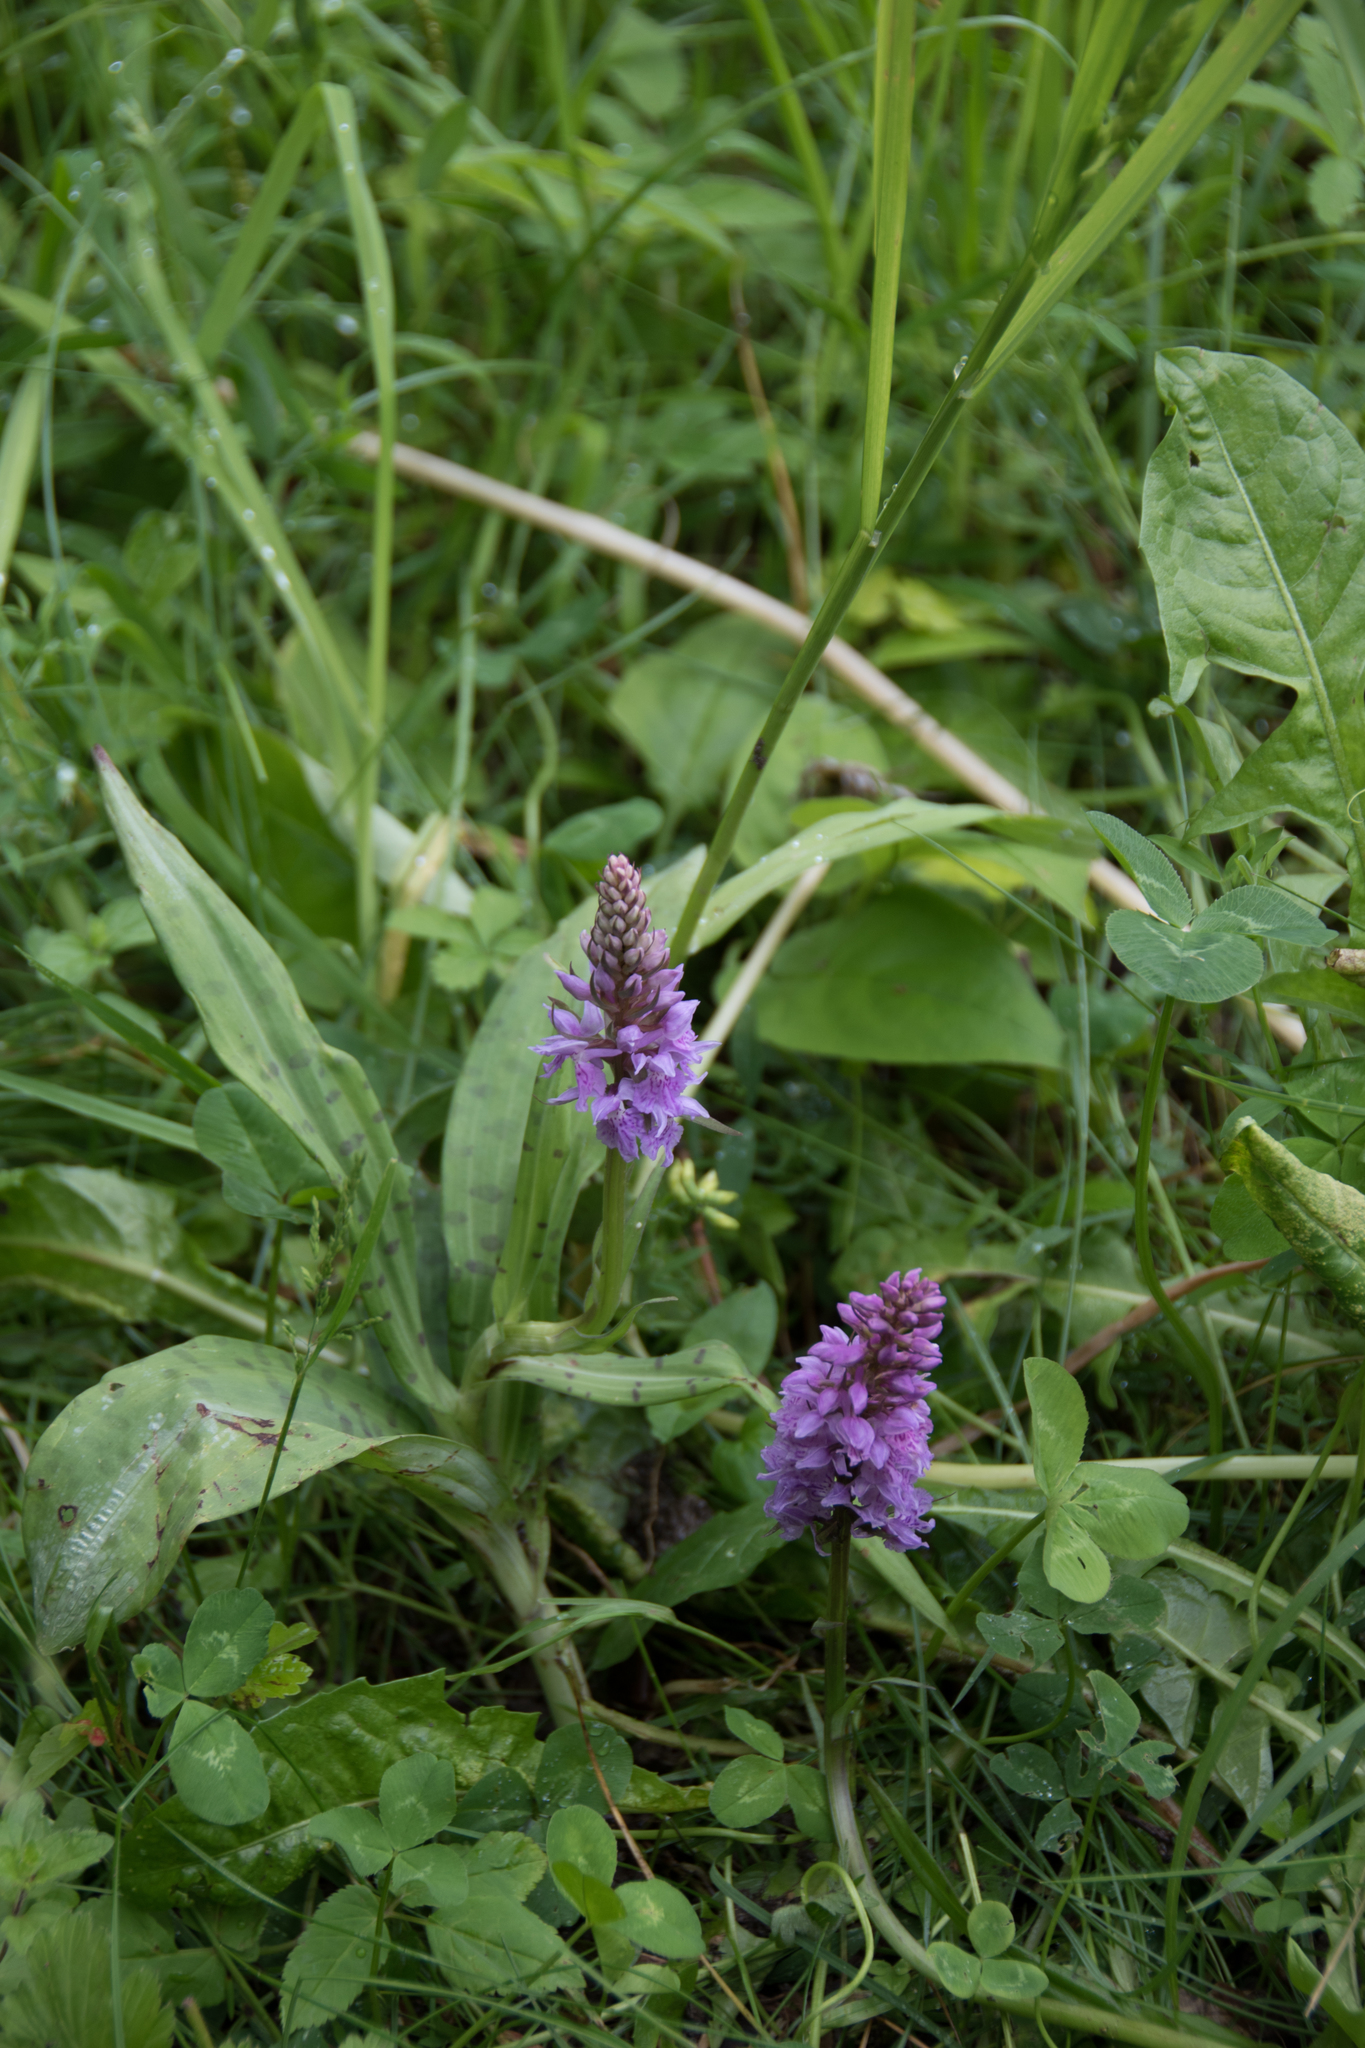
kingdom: Plantae
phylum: Tracheophyta
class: Liliopsida
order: Asparagales
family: Orchidaceae
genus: Dactylorhiza
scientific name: Dactylorhiza maculata
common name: Heath spotted-orchid
